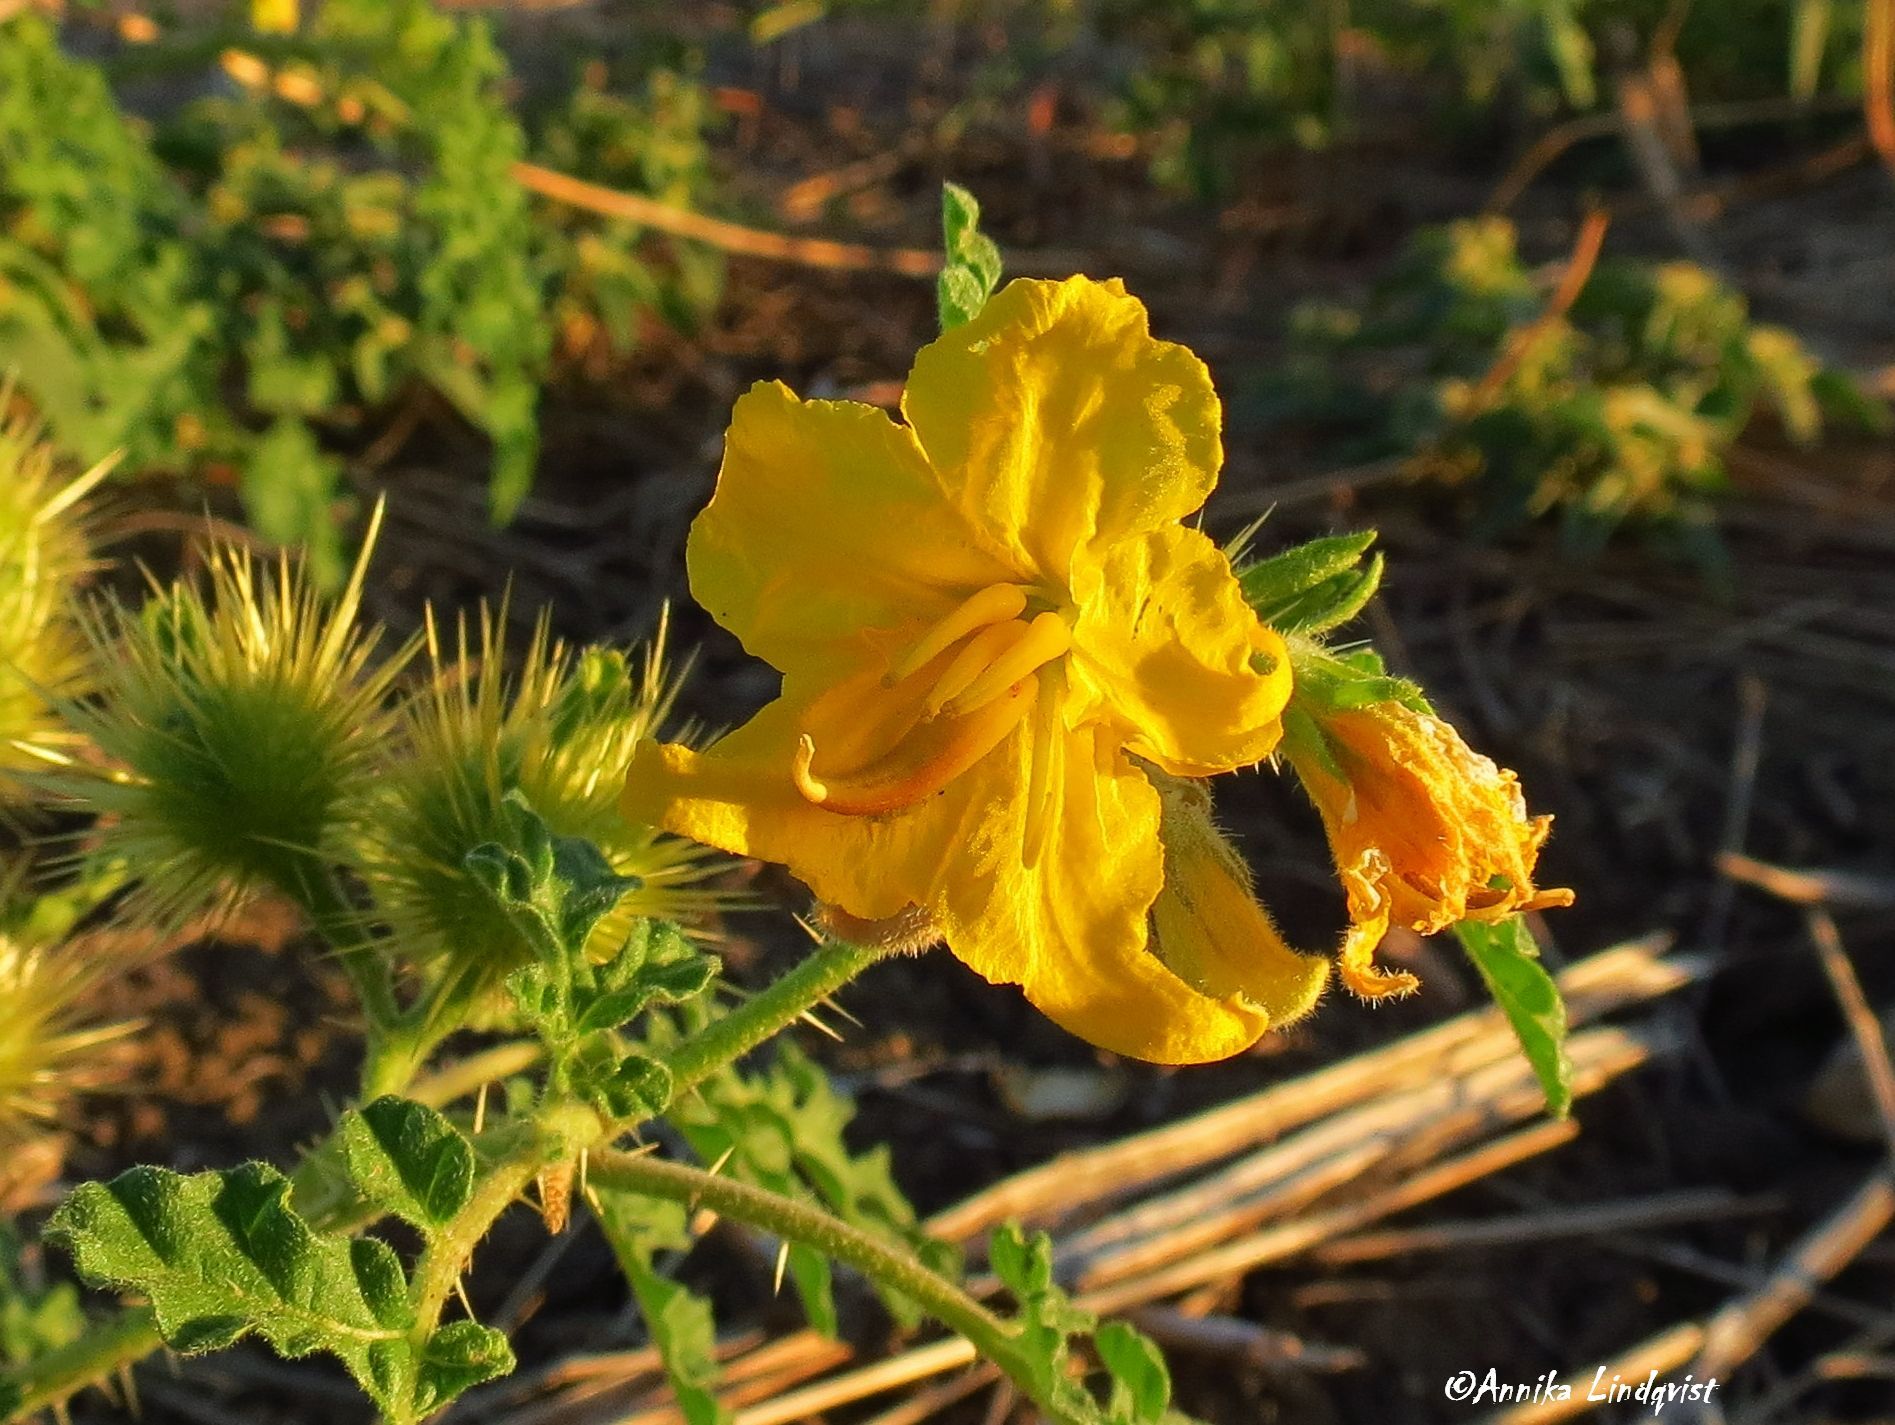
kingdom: Plantae
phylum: Tracheophyta
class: Magnoliopsida
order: Solanales
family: Solanaceae
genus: Solanum
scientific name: Solanum angustifolium
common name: Buffalobur nightshade
